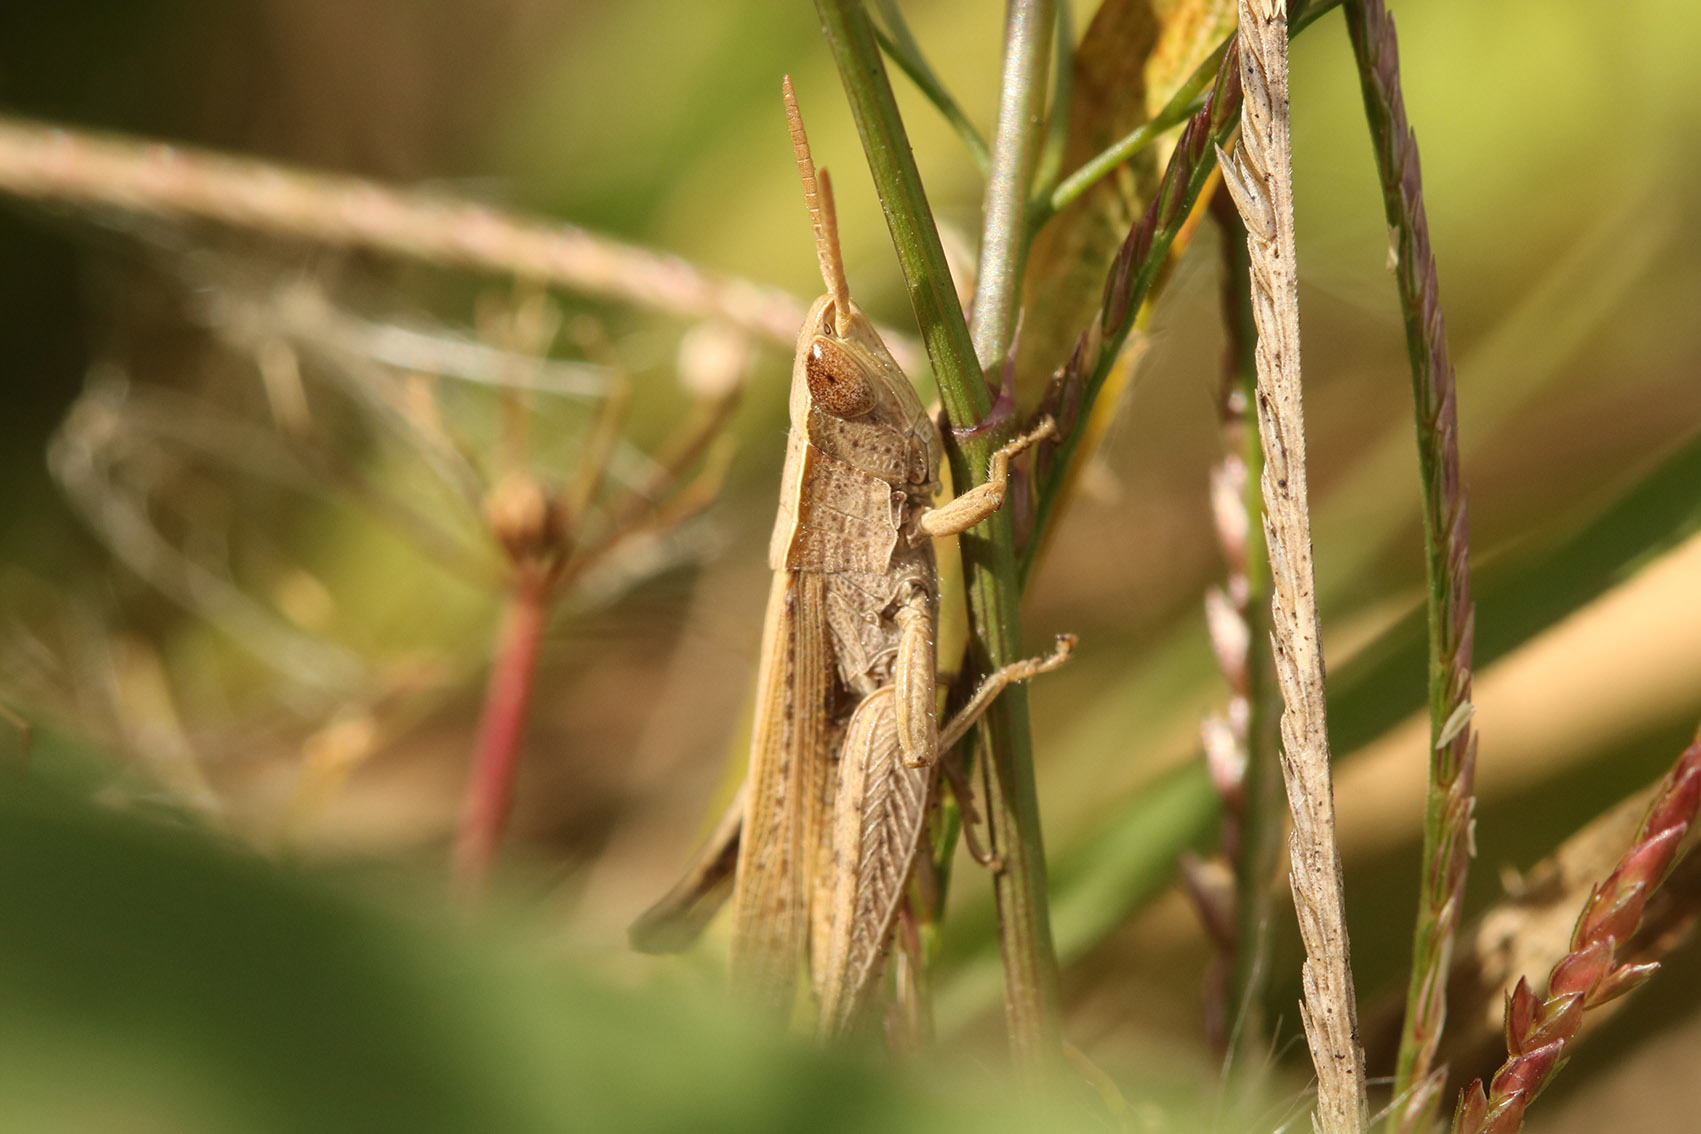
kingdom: Animalia
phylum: Arthropoda
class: Insecta
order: Orthoptera
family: Acrididae
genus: Laplatacris
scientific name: Laplatacris dispar
